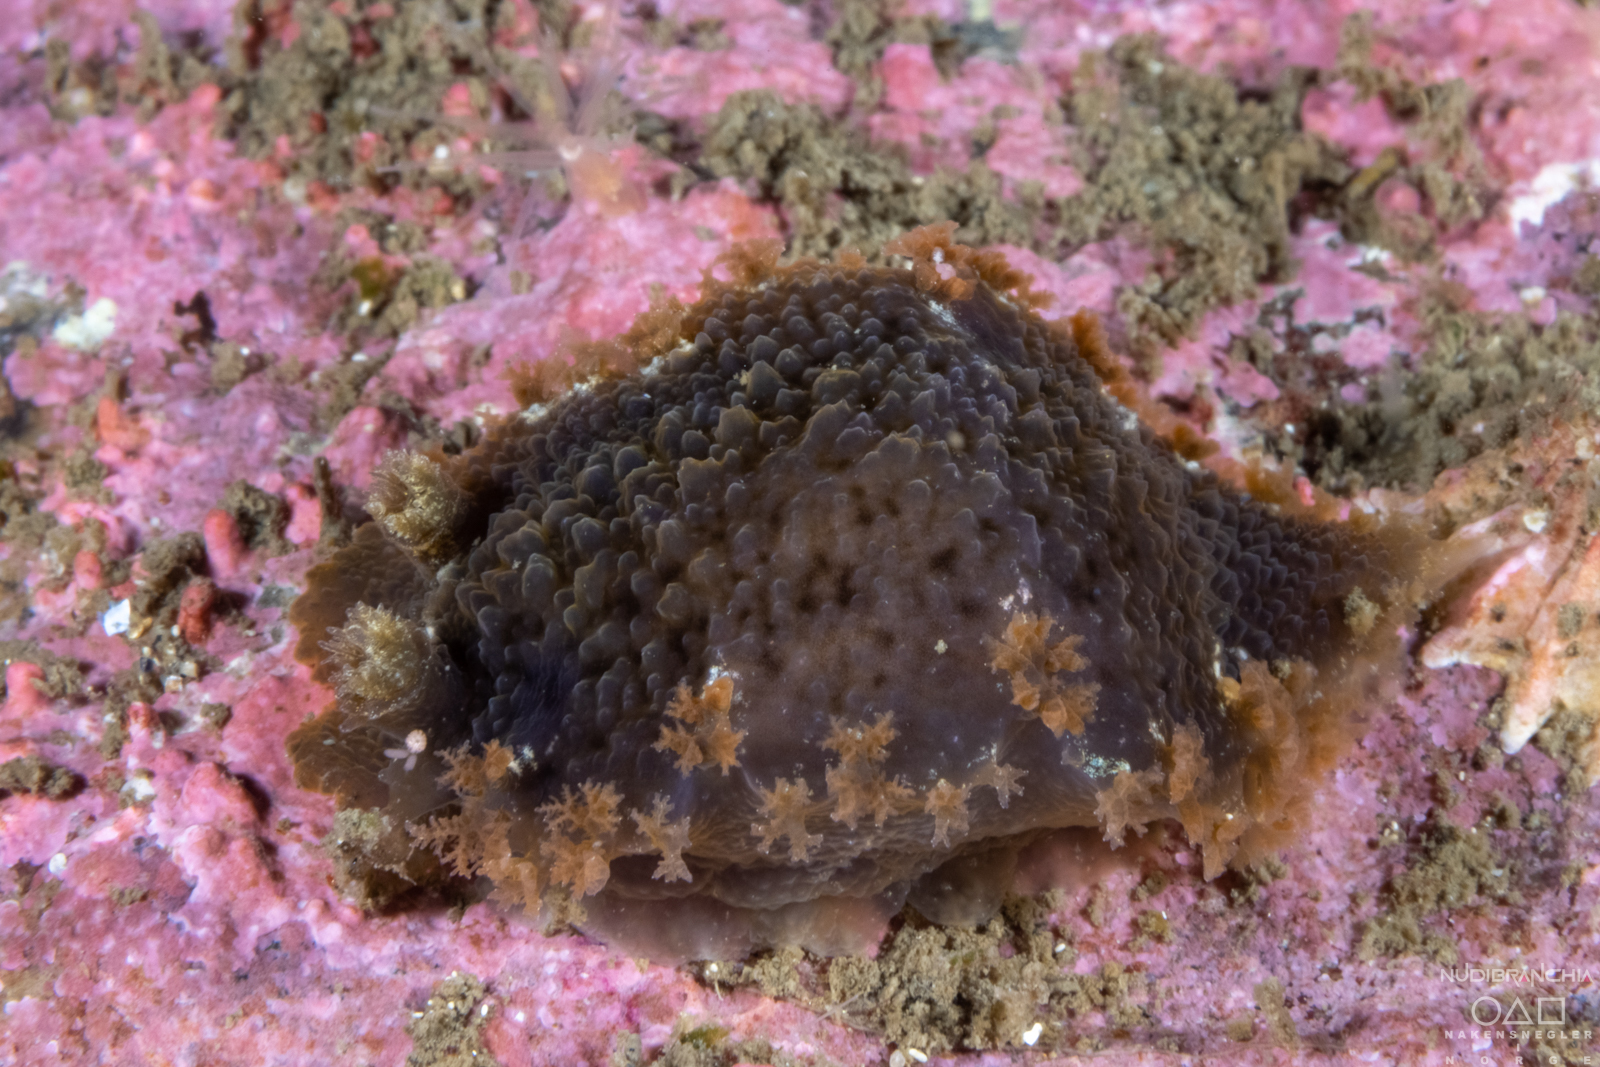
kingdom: Animalia
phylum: Mollusca
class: Gastropoda
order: Nudibranchia
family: Tritoniidae
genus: Tritonia
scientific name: Tritonia hombergii
